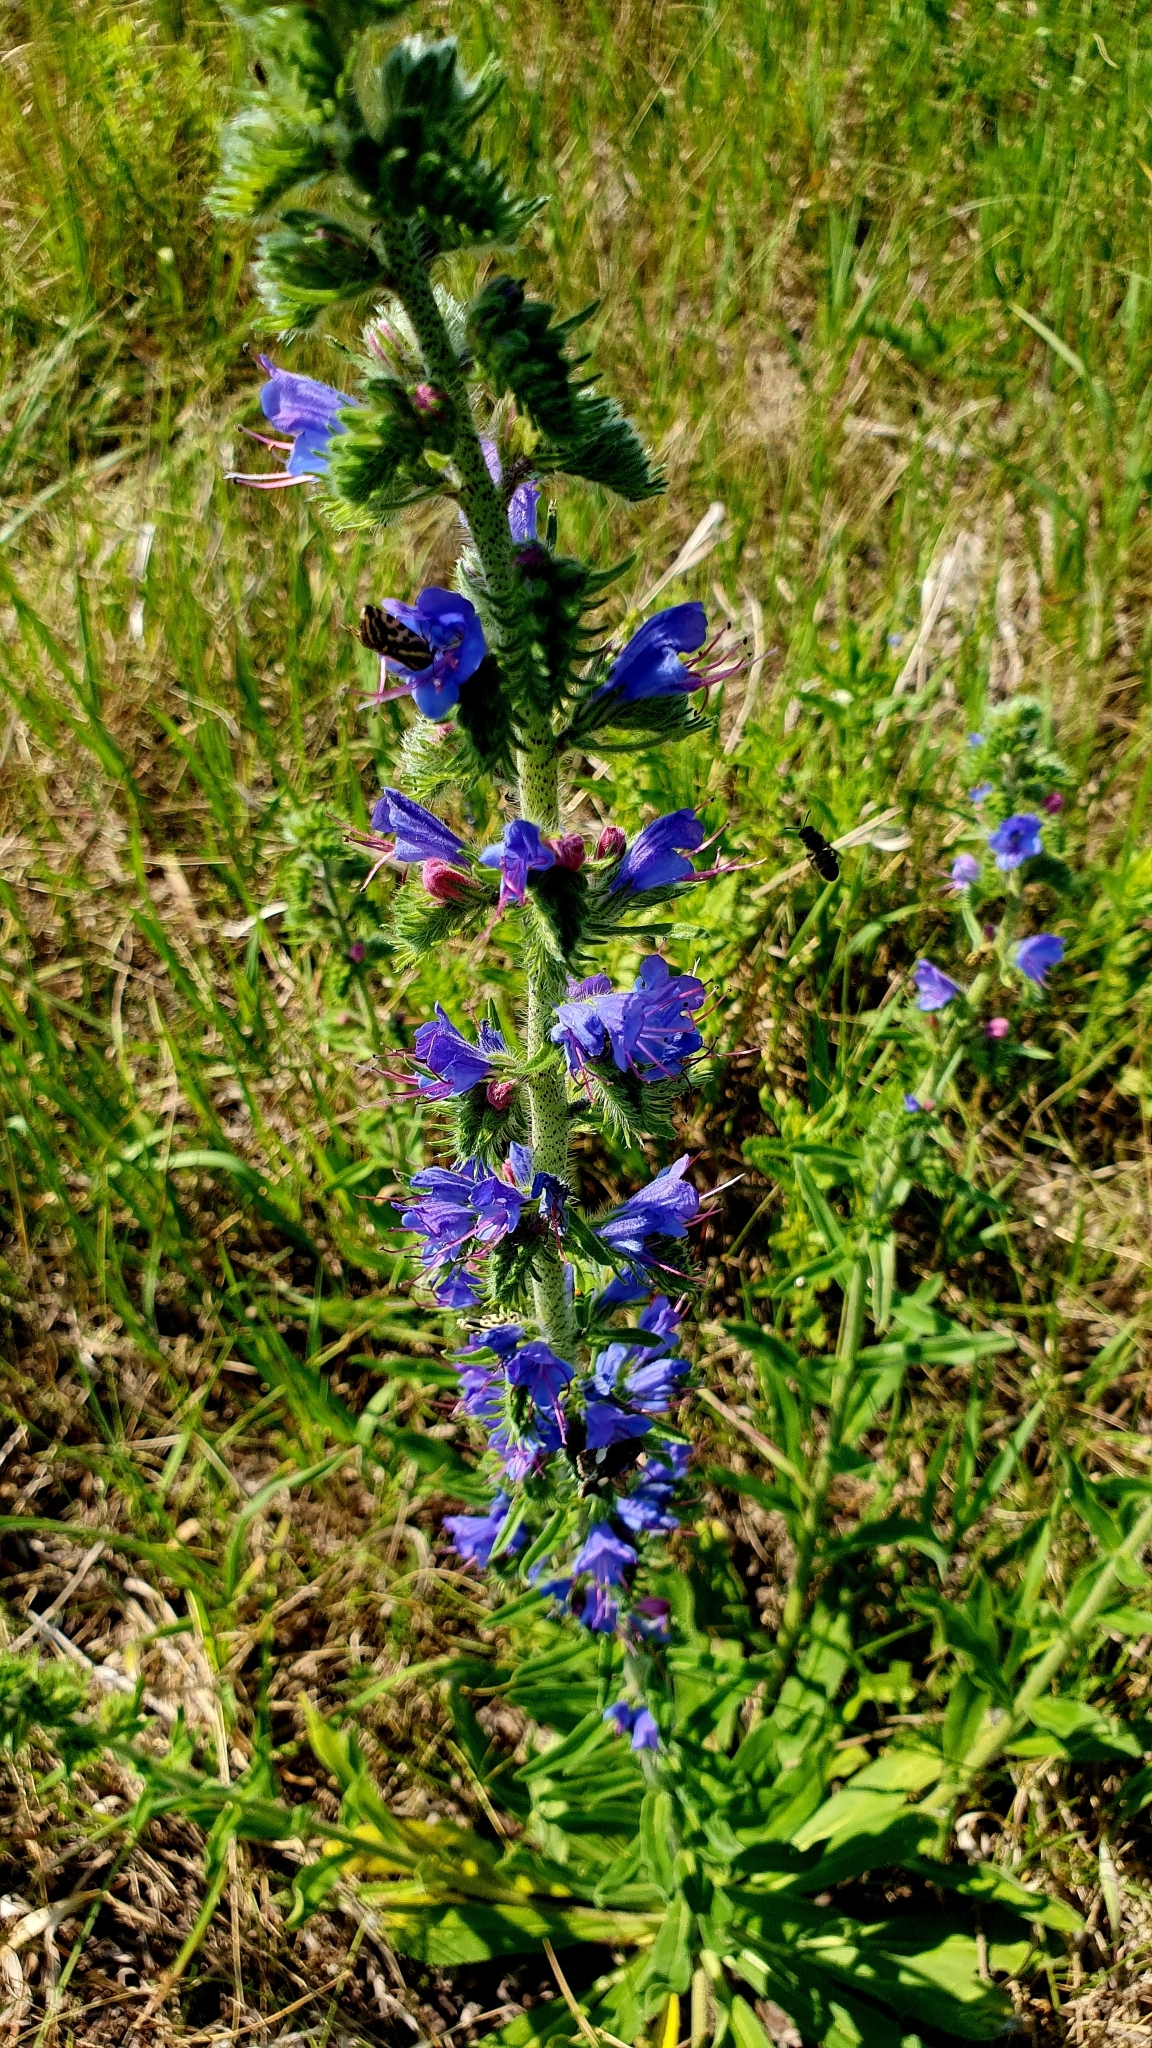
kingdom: Plantae
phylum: Tracheophyta
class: Magnoliopsida
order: Boraginales
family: Boraginaceae
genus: Echium
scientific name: Echium vulgare
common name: Common viper's bugloss
